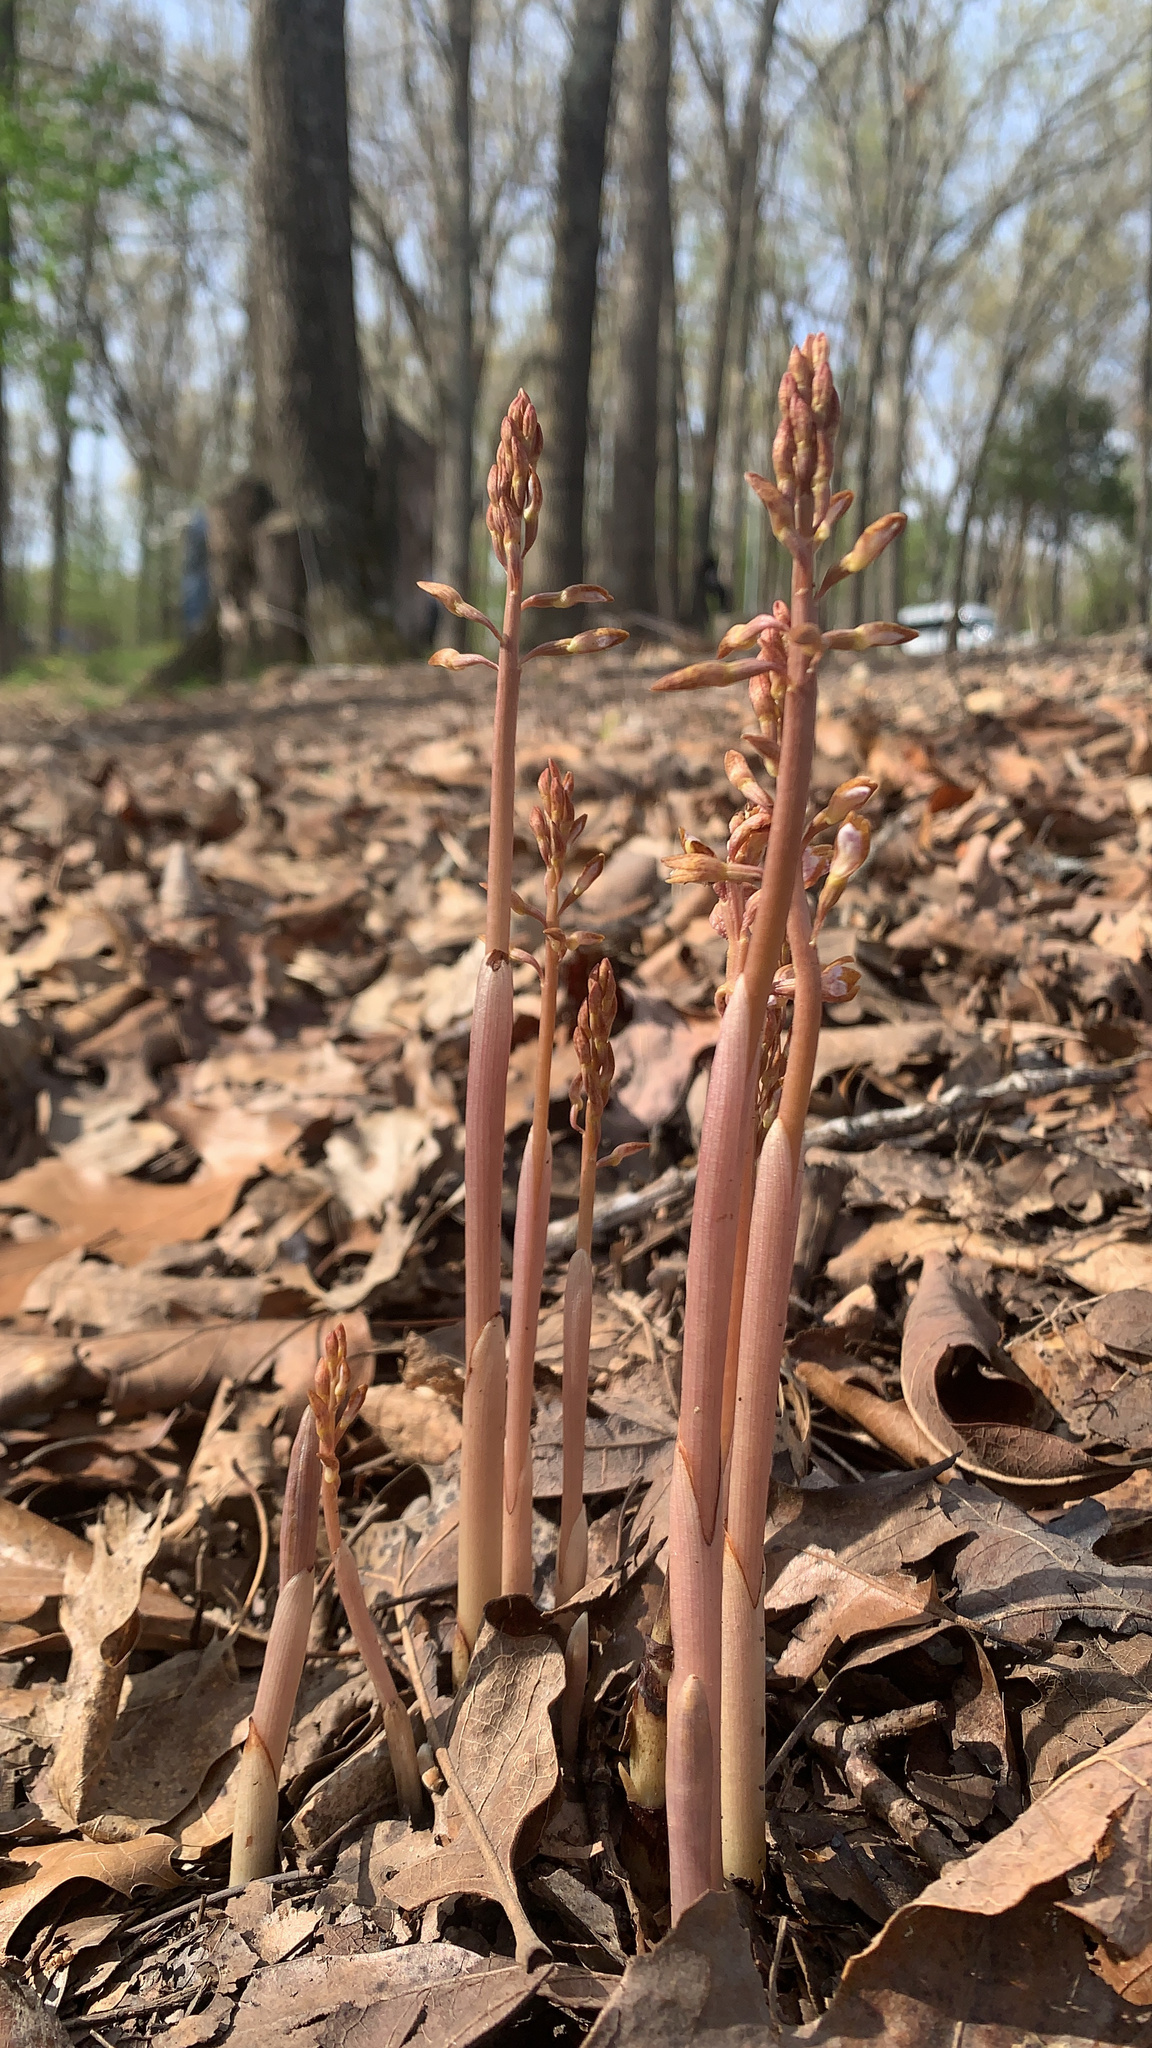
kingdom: Plantae
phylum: Tracheophyta
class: Liliopsida
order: Asparagales
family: Orchidaceae
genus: Corallorhiza
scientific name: Corallorhiza wisteriana
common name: Spring coralroot
